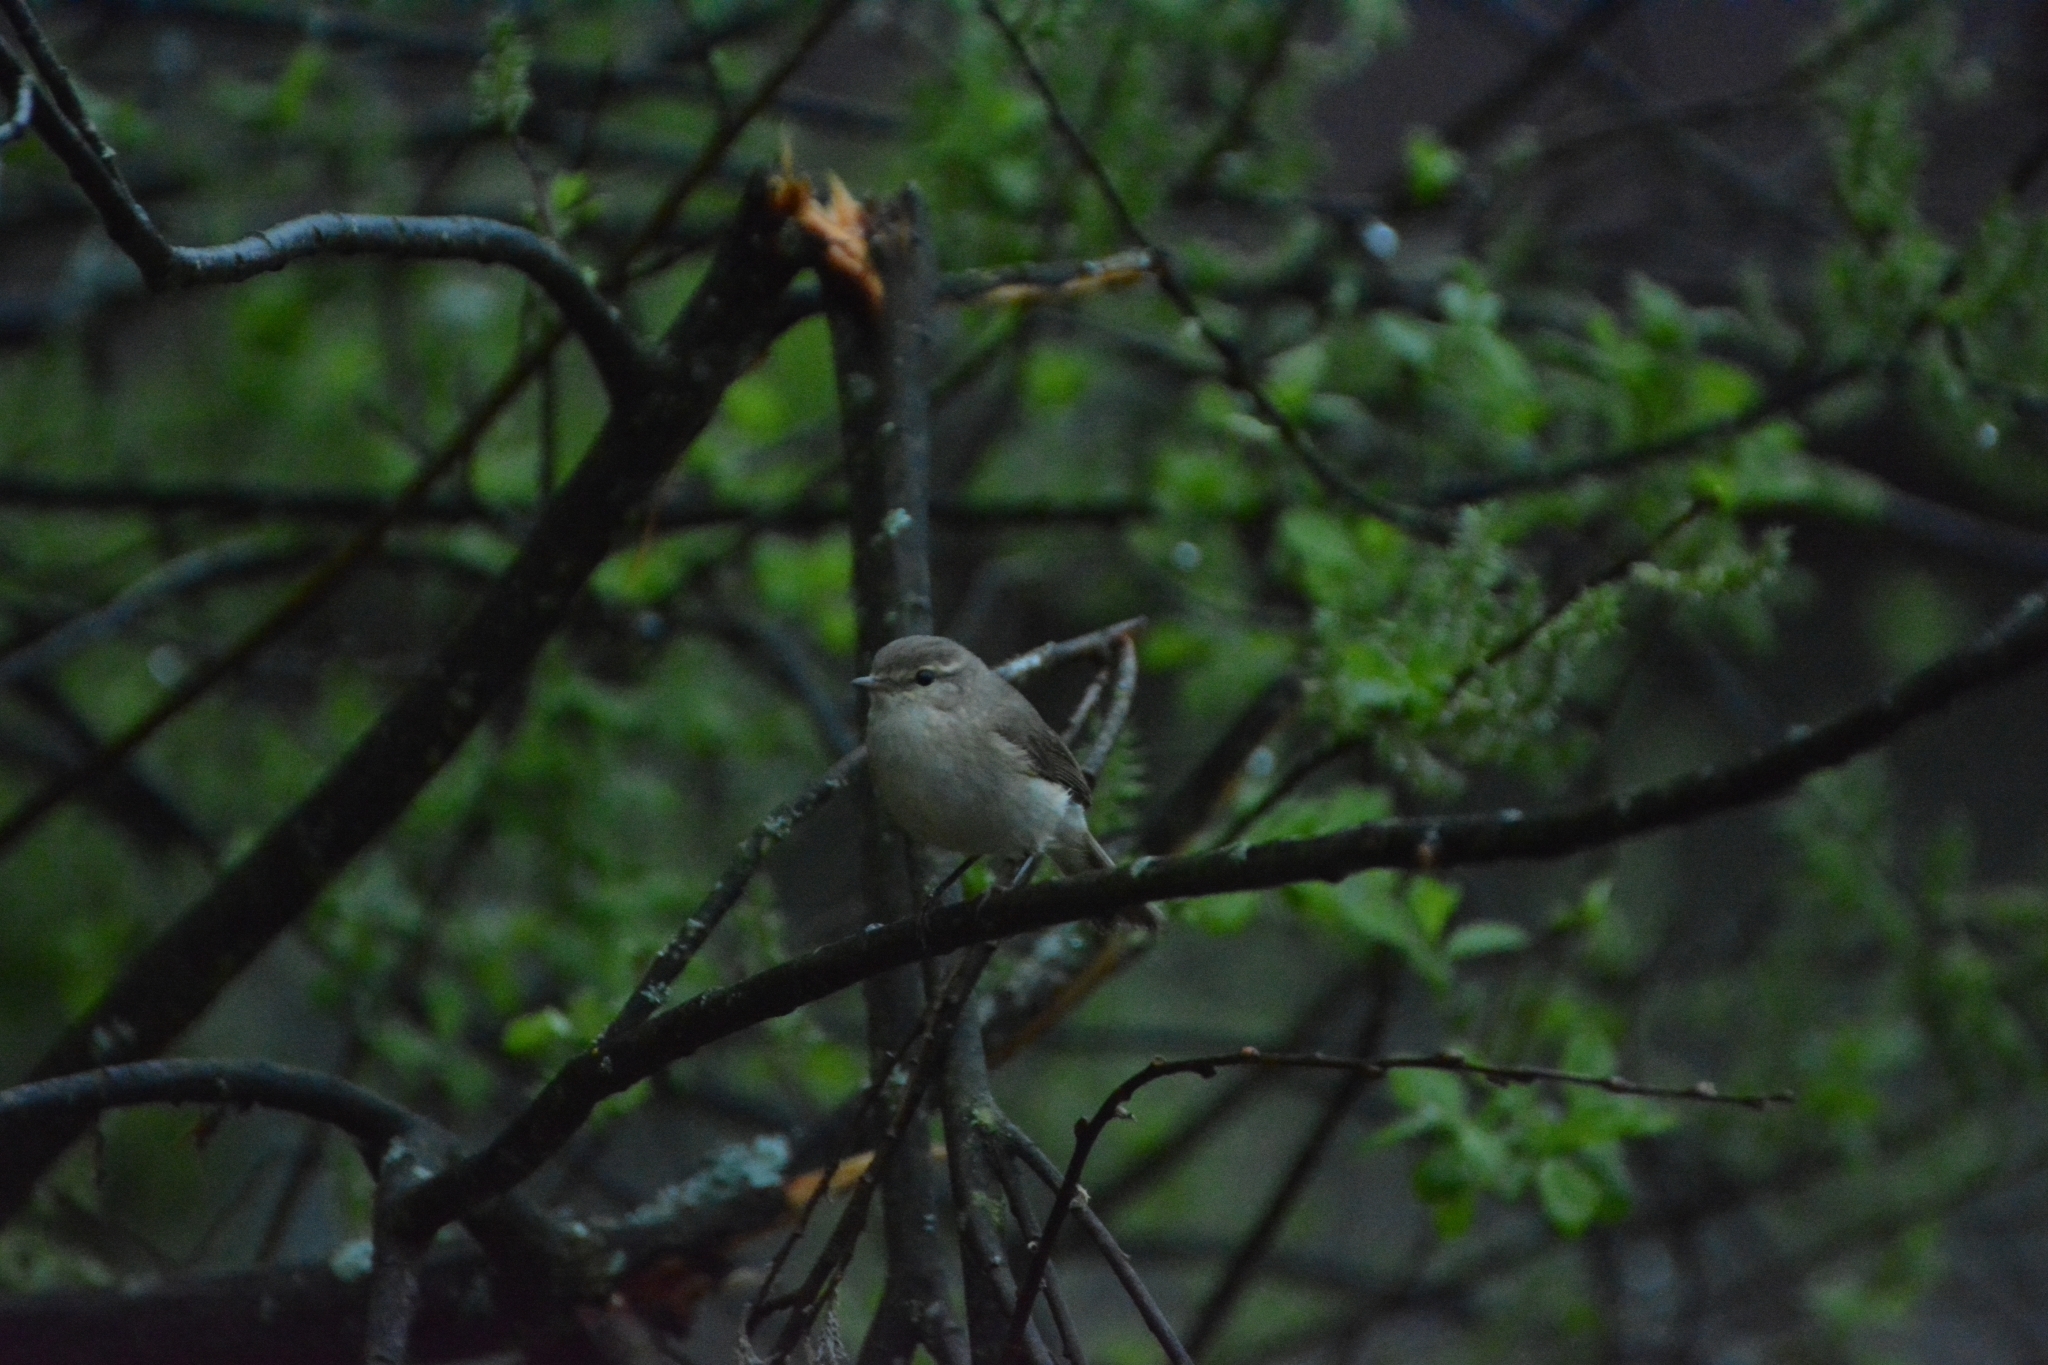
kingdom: Animalia
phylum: Chordata
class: Aves
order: Passeriformes
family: Phylloscopidae
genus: Phylloscopus
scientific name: Phylloscopus collybita
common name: Common chiffchaff
